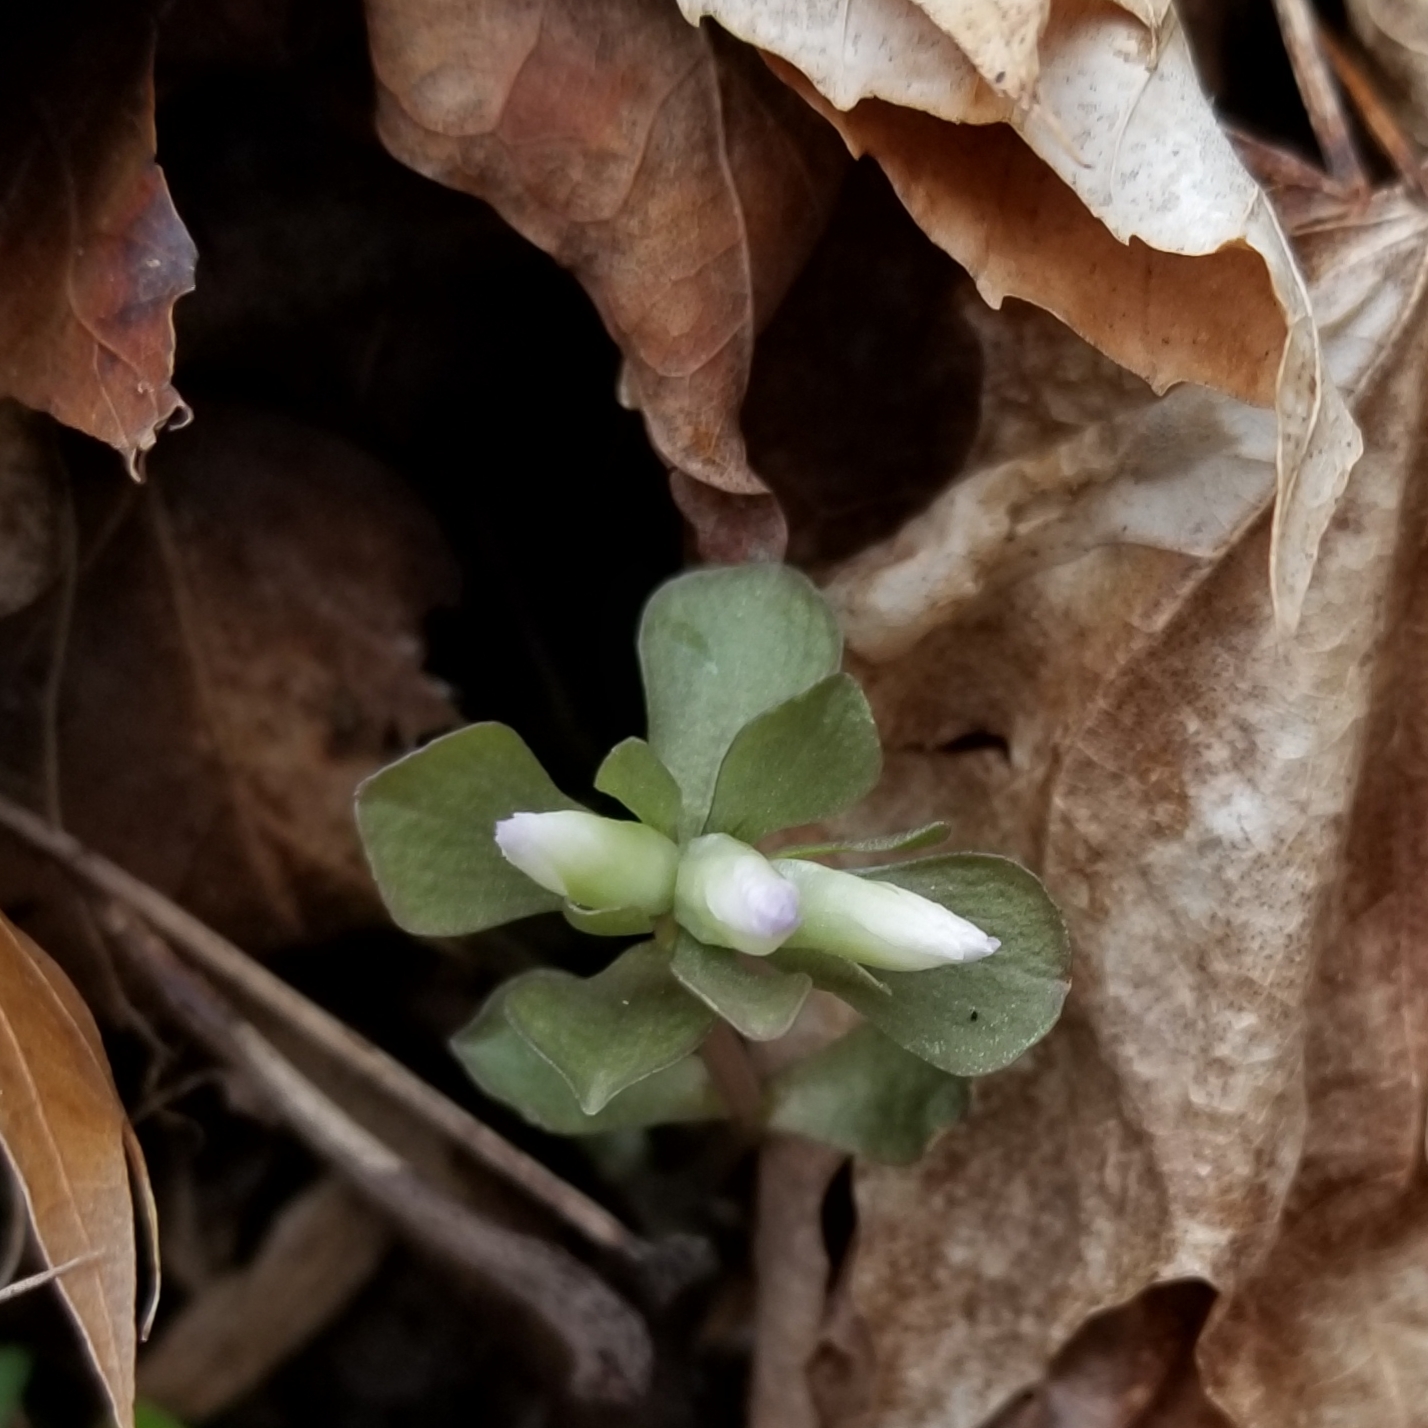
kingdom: Plantae
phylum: Tracheophyta
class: Magnoliopsida
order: Gentianales
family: Gentianaceae
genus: Obolaria
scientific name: Obolaria virginica
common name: Pennywort
